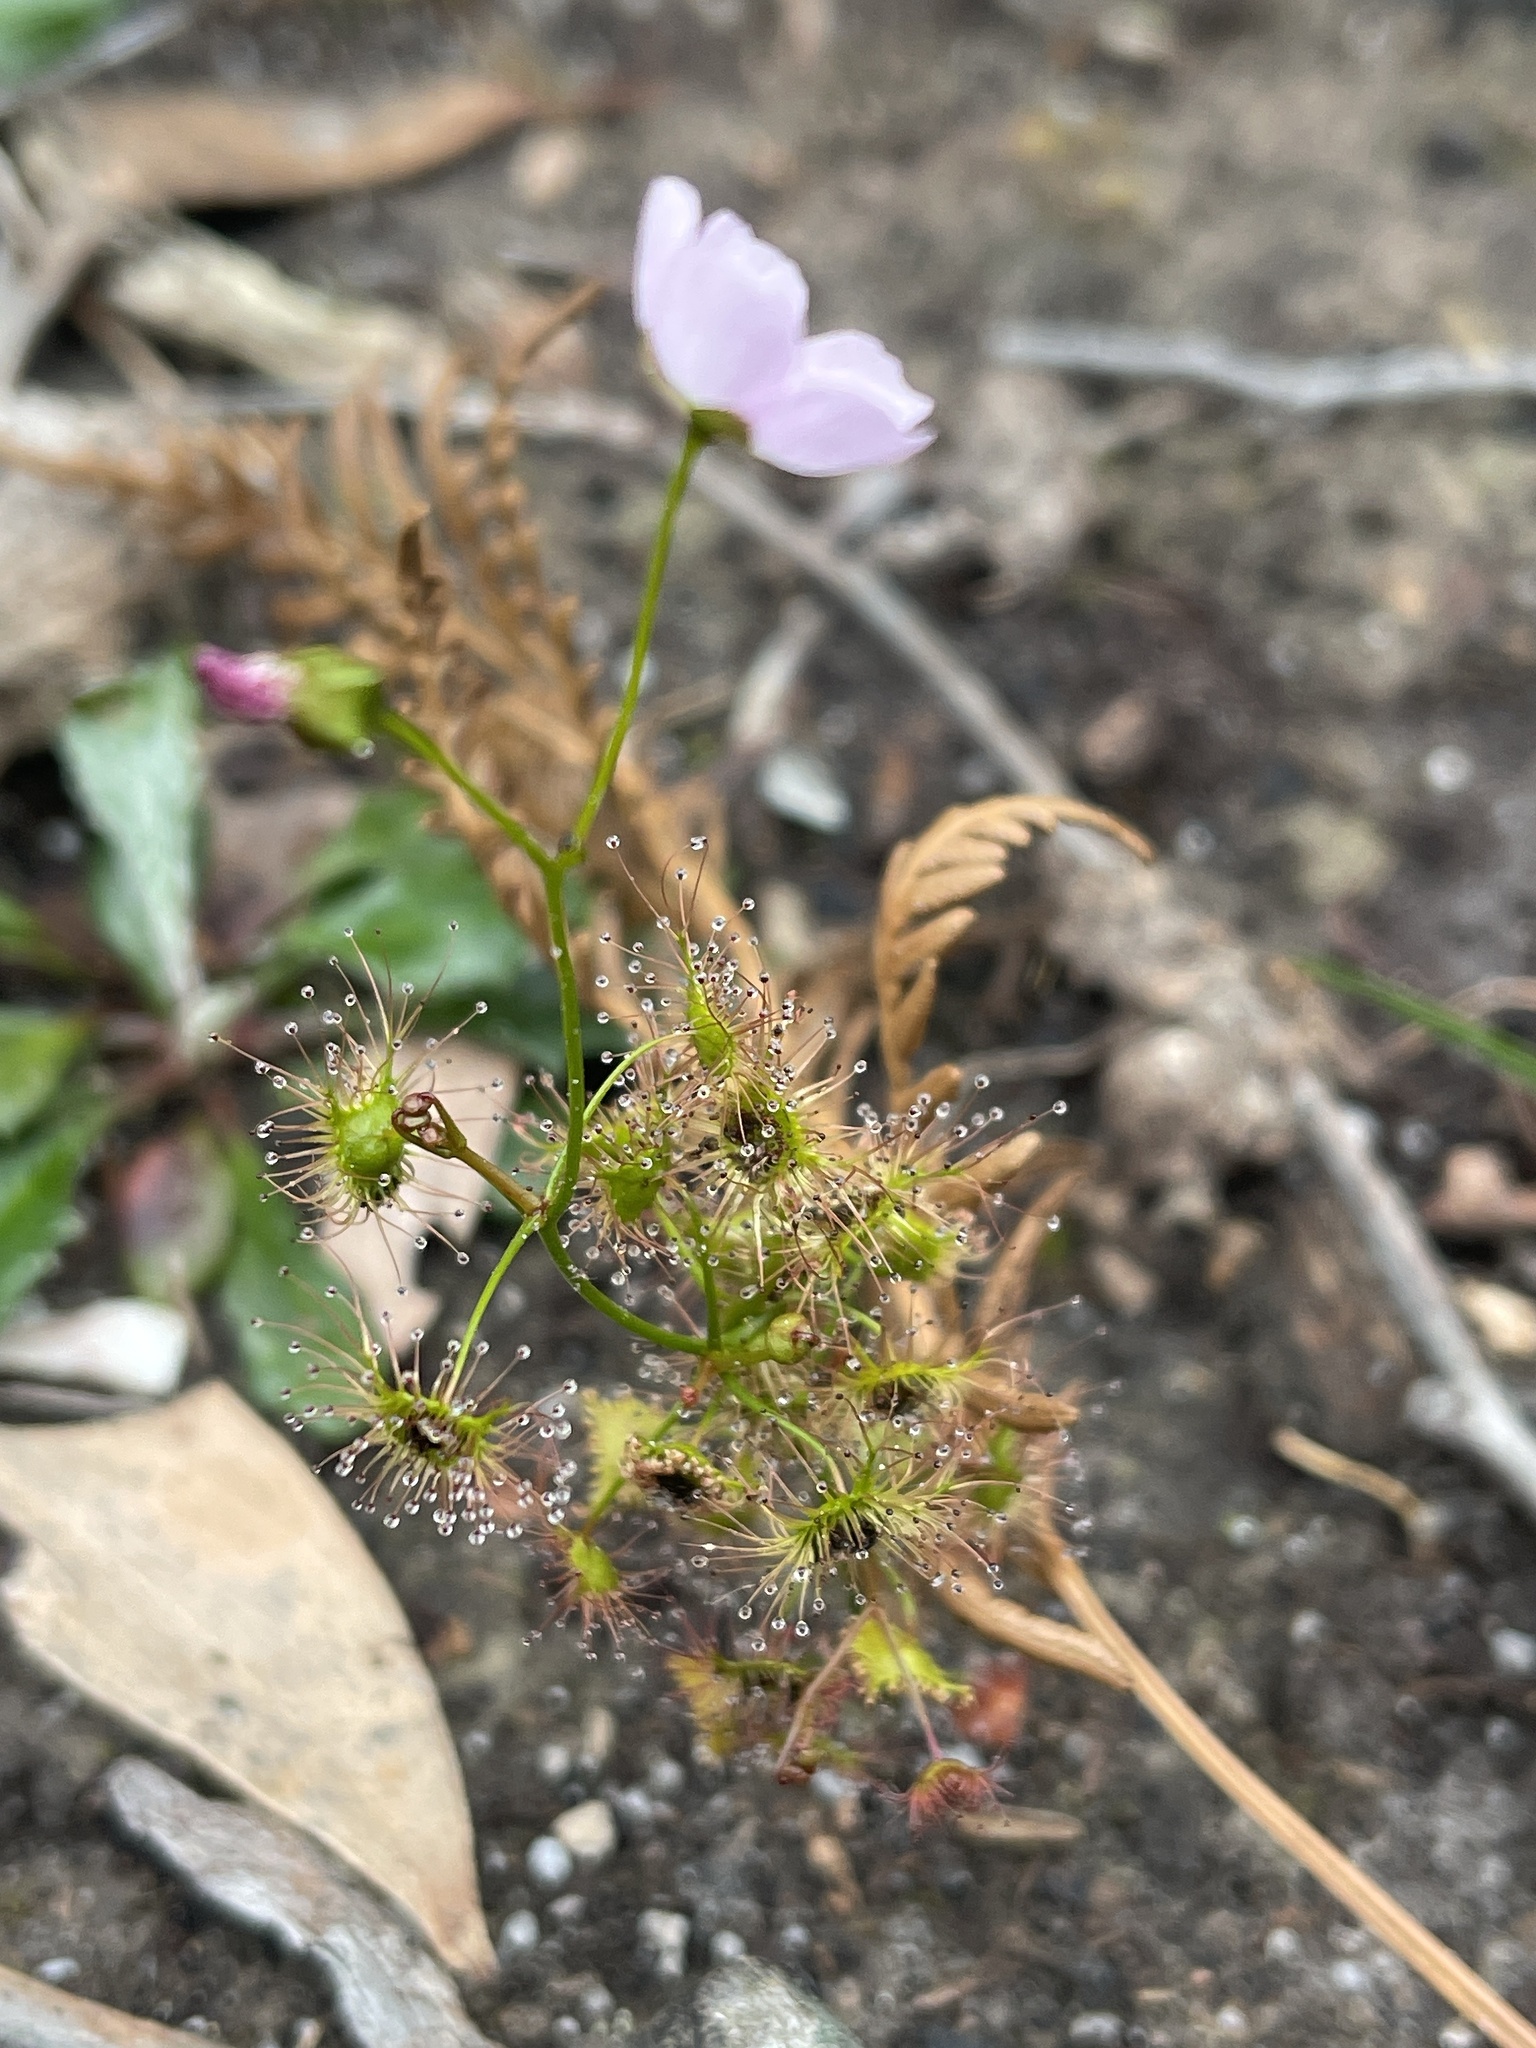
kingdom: Plantae
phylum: Tracheophyta
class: Magnoliopsida
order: Caryophyllales
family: Droseraceae
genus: Drosera
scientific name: Drosera peltata
